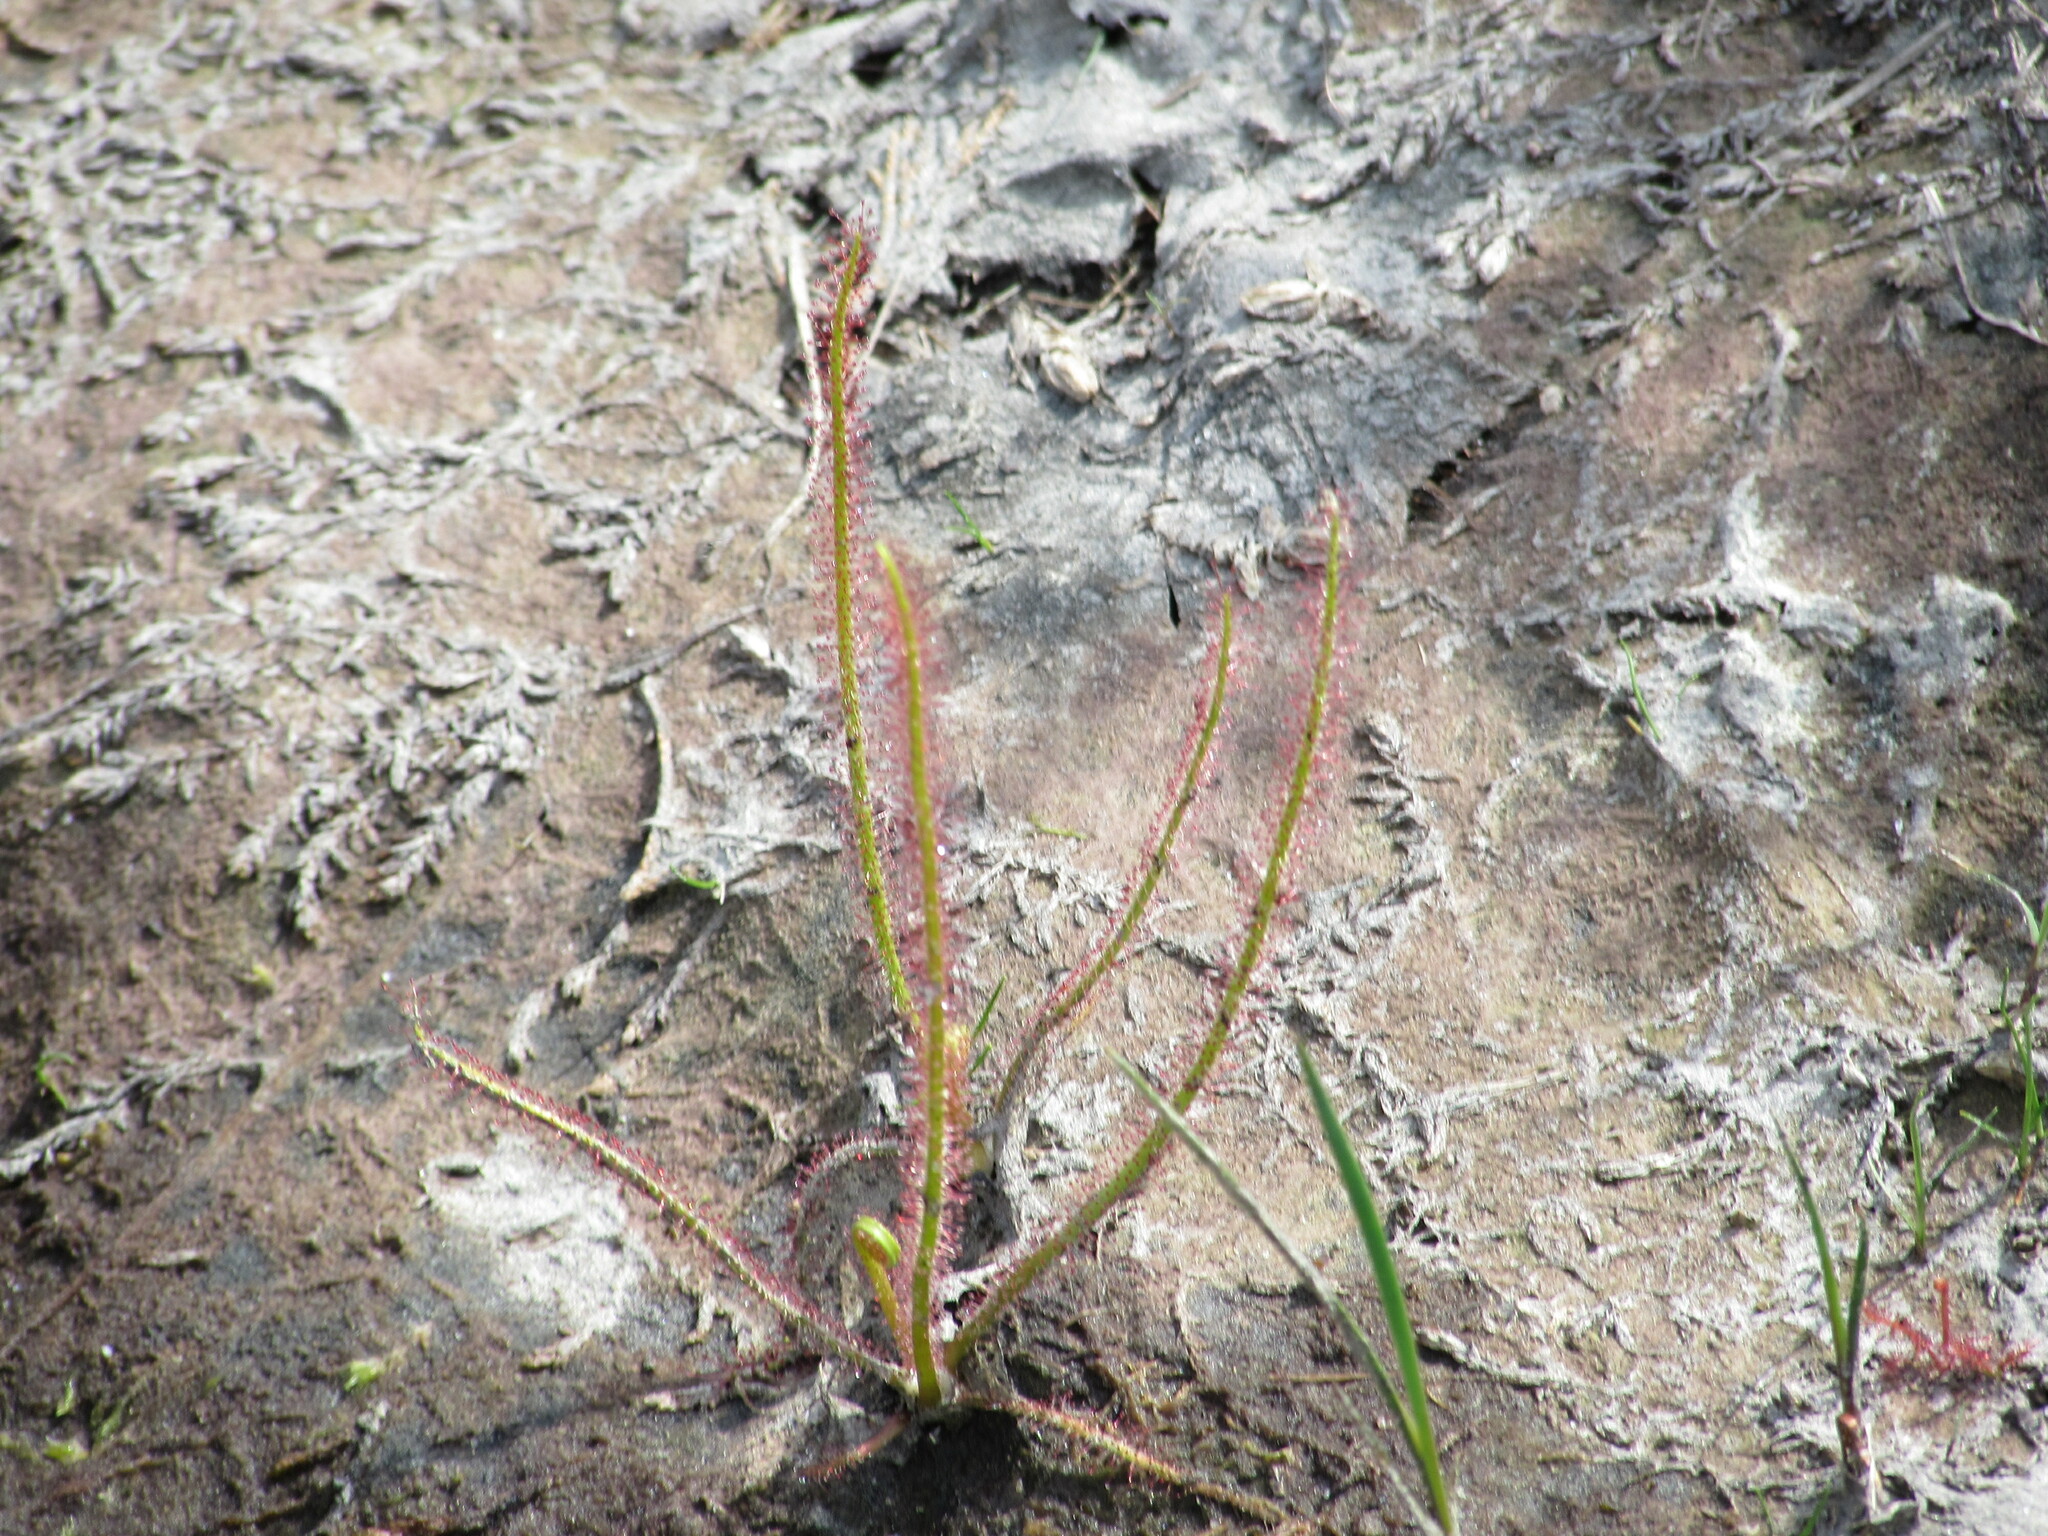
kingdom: Plantae
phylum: Tracheophyta
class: Magnoliopsida
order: Caryophyllales
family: Droseraceae
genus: Drosera
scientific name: Drosera filiformis
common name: Dew-thread
